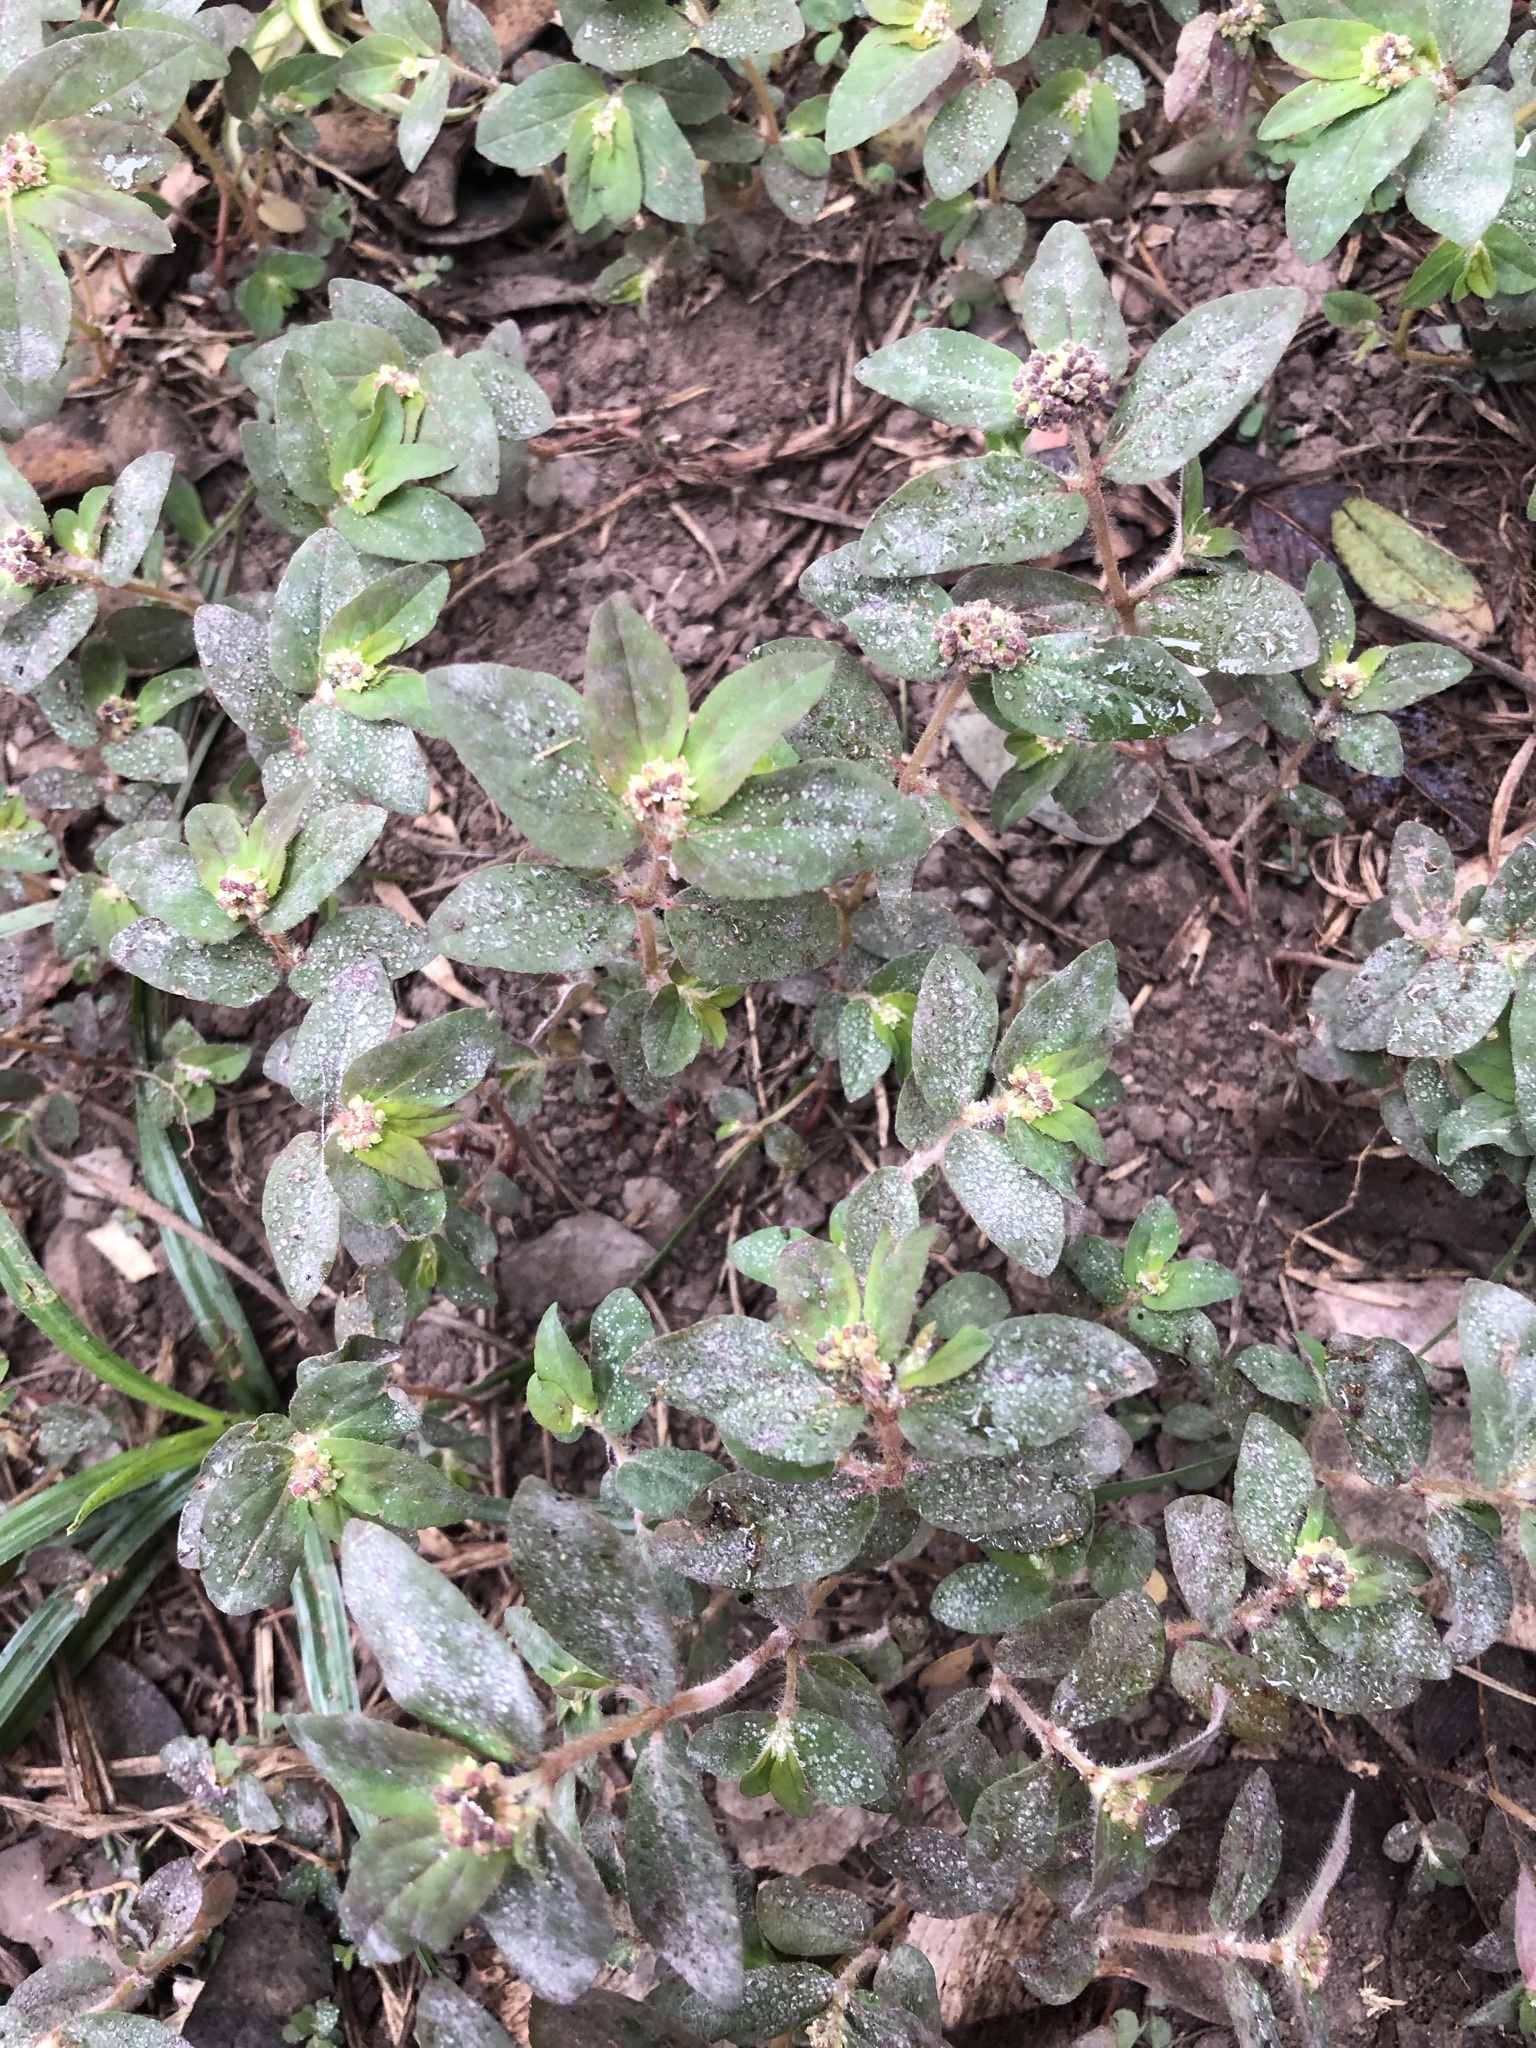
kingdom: Plantae
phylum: Tracheophyta
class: Magnoliopsida
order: Malpighiales
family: Euphorbiaceae
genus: Euphorbia
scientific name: Euphorbia ophthalmica
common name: Florida hammock sandmat
